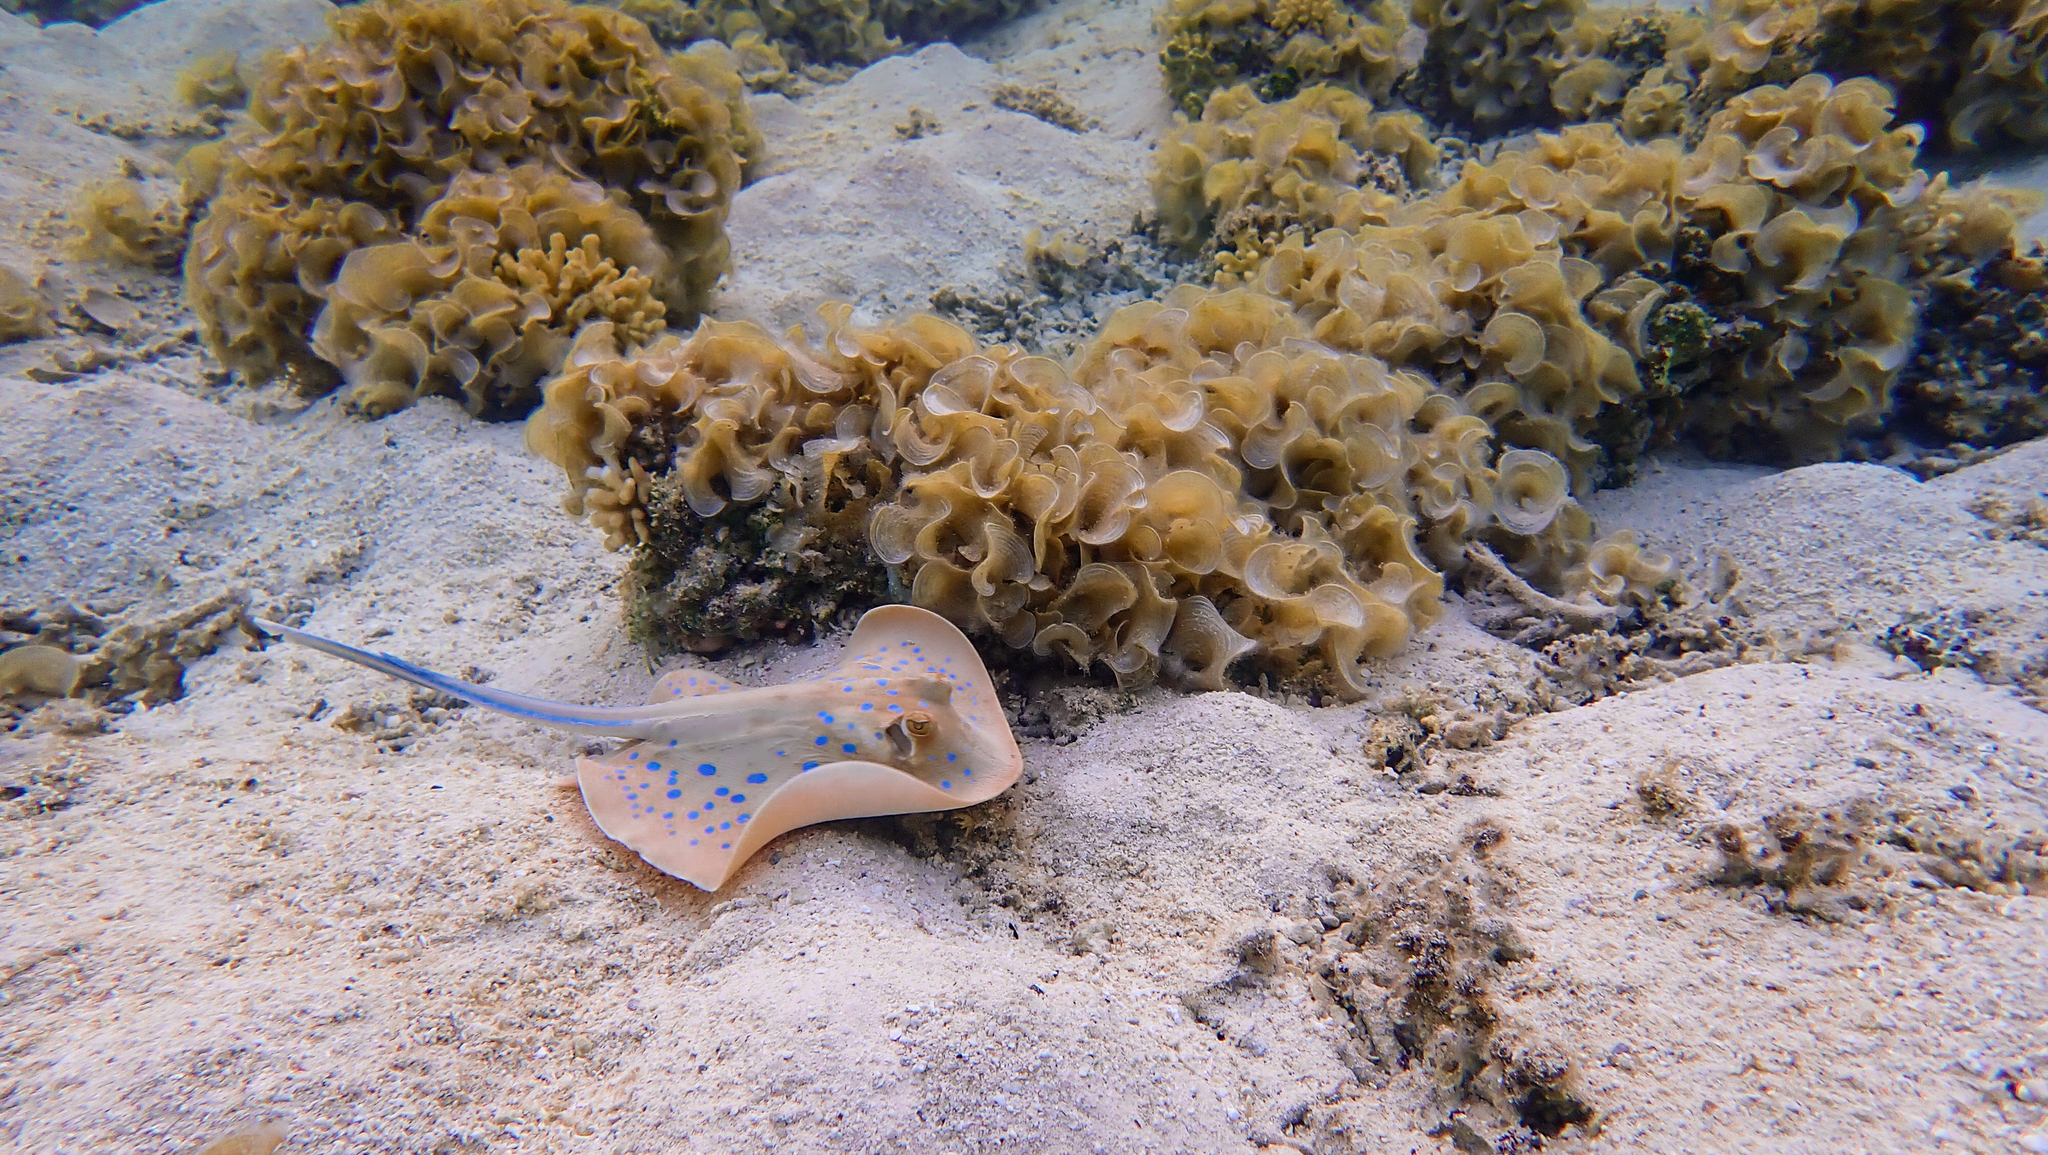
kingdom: Animalia
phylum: Chordata
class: Elasmobranchii
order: Myliobatiformes
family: Dasyatidae
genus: Taeniura
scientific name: Taeniura lymma
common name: Bluespotted ribbontail ray
